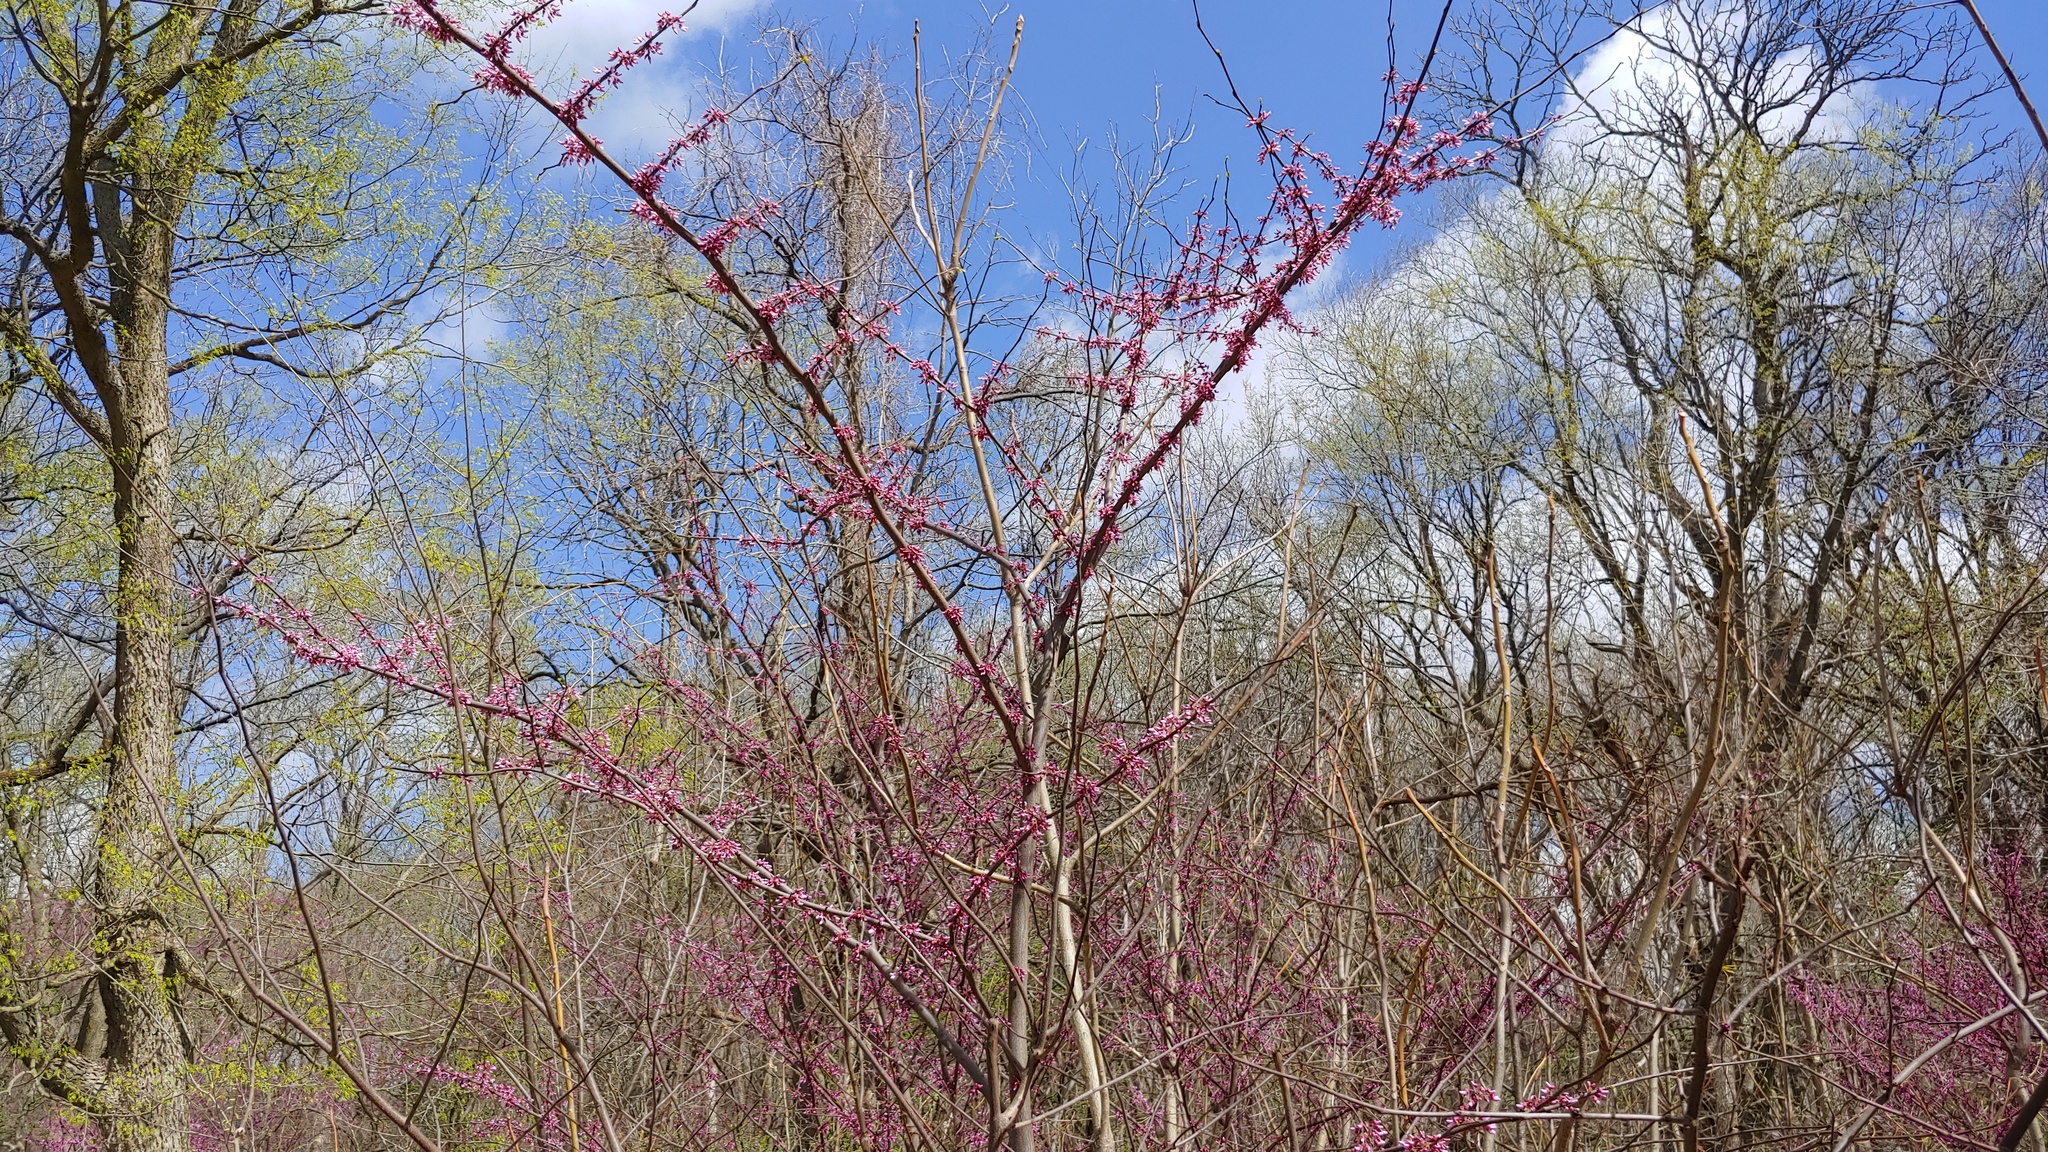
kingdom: Plantae
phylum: Tracheophyta
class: Magnoliopsida
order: Fabales
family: Fabaceae
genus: Cercis
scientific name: Cercis canadensis
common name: Eastern redbud
